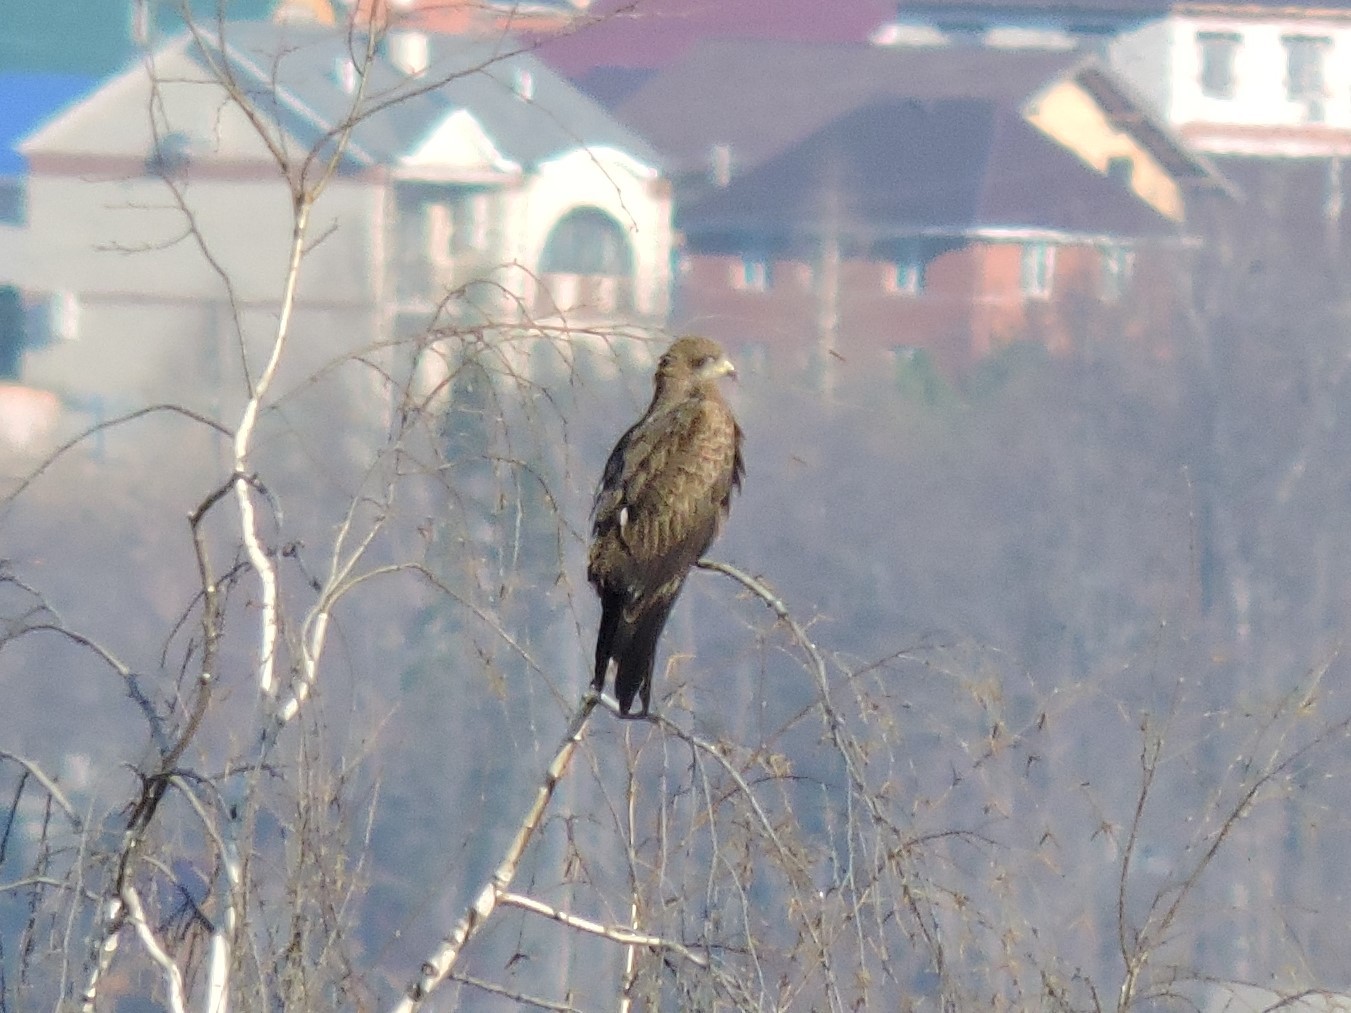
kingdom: Animalia
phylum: Chordata
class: Aves
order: Accipitriformes
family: Accipitridae
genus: Milvus
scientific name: Milvus migrans
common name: Black kite
